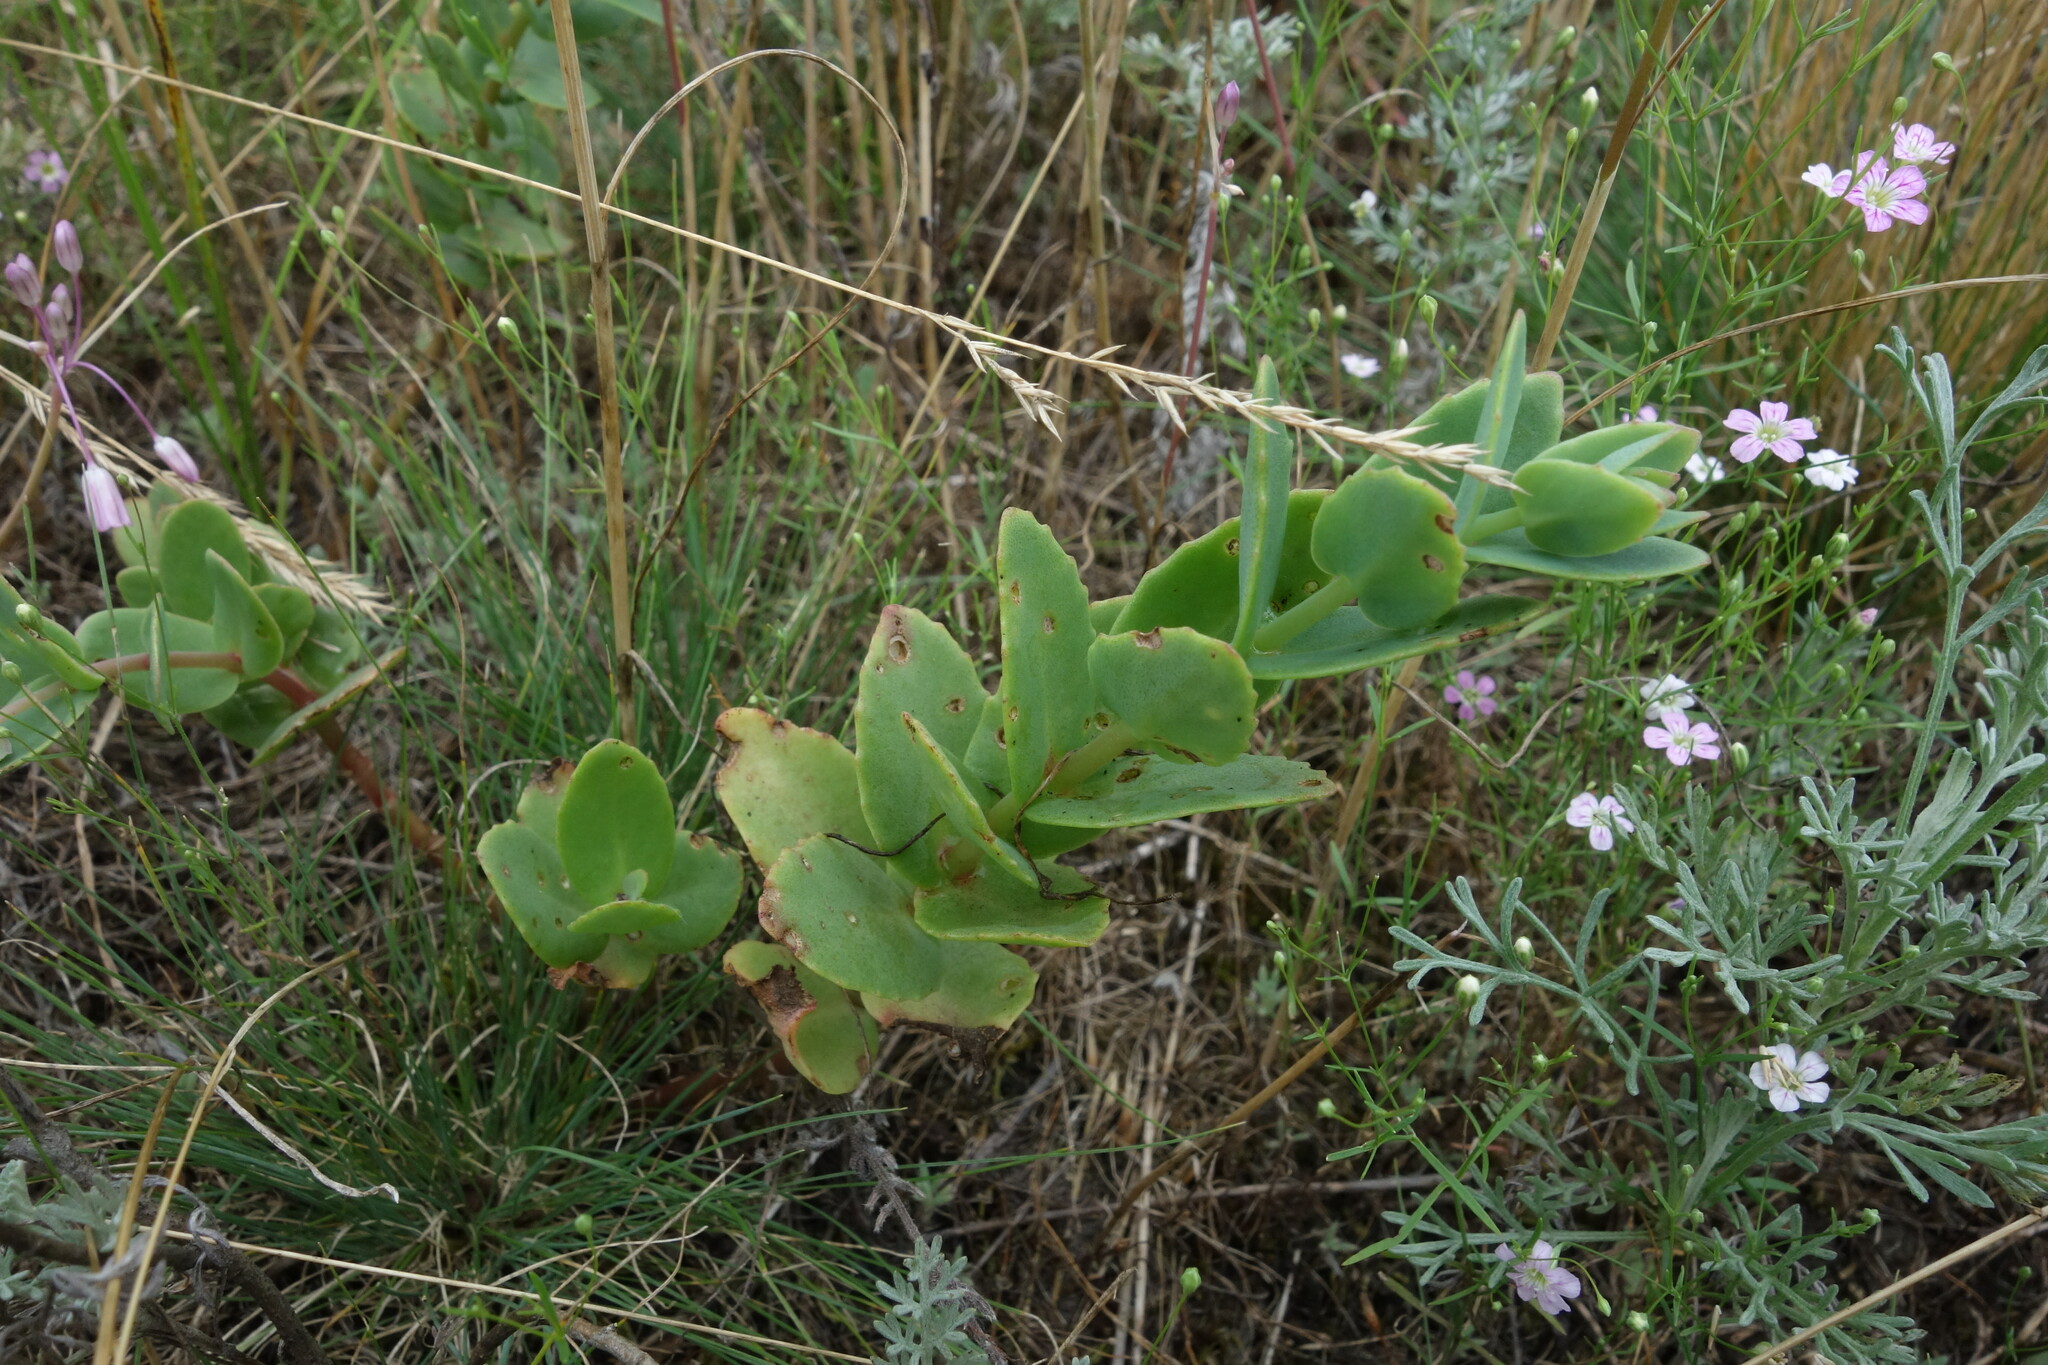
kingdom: Plantae
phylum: Tracheophyta
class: Magnoliopsida
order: Saxifragales
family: Crassulaceae
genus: Hylotelephium
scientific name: Hylotelephium maximum
